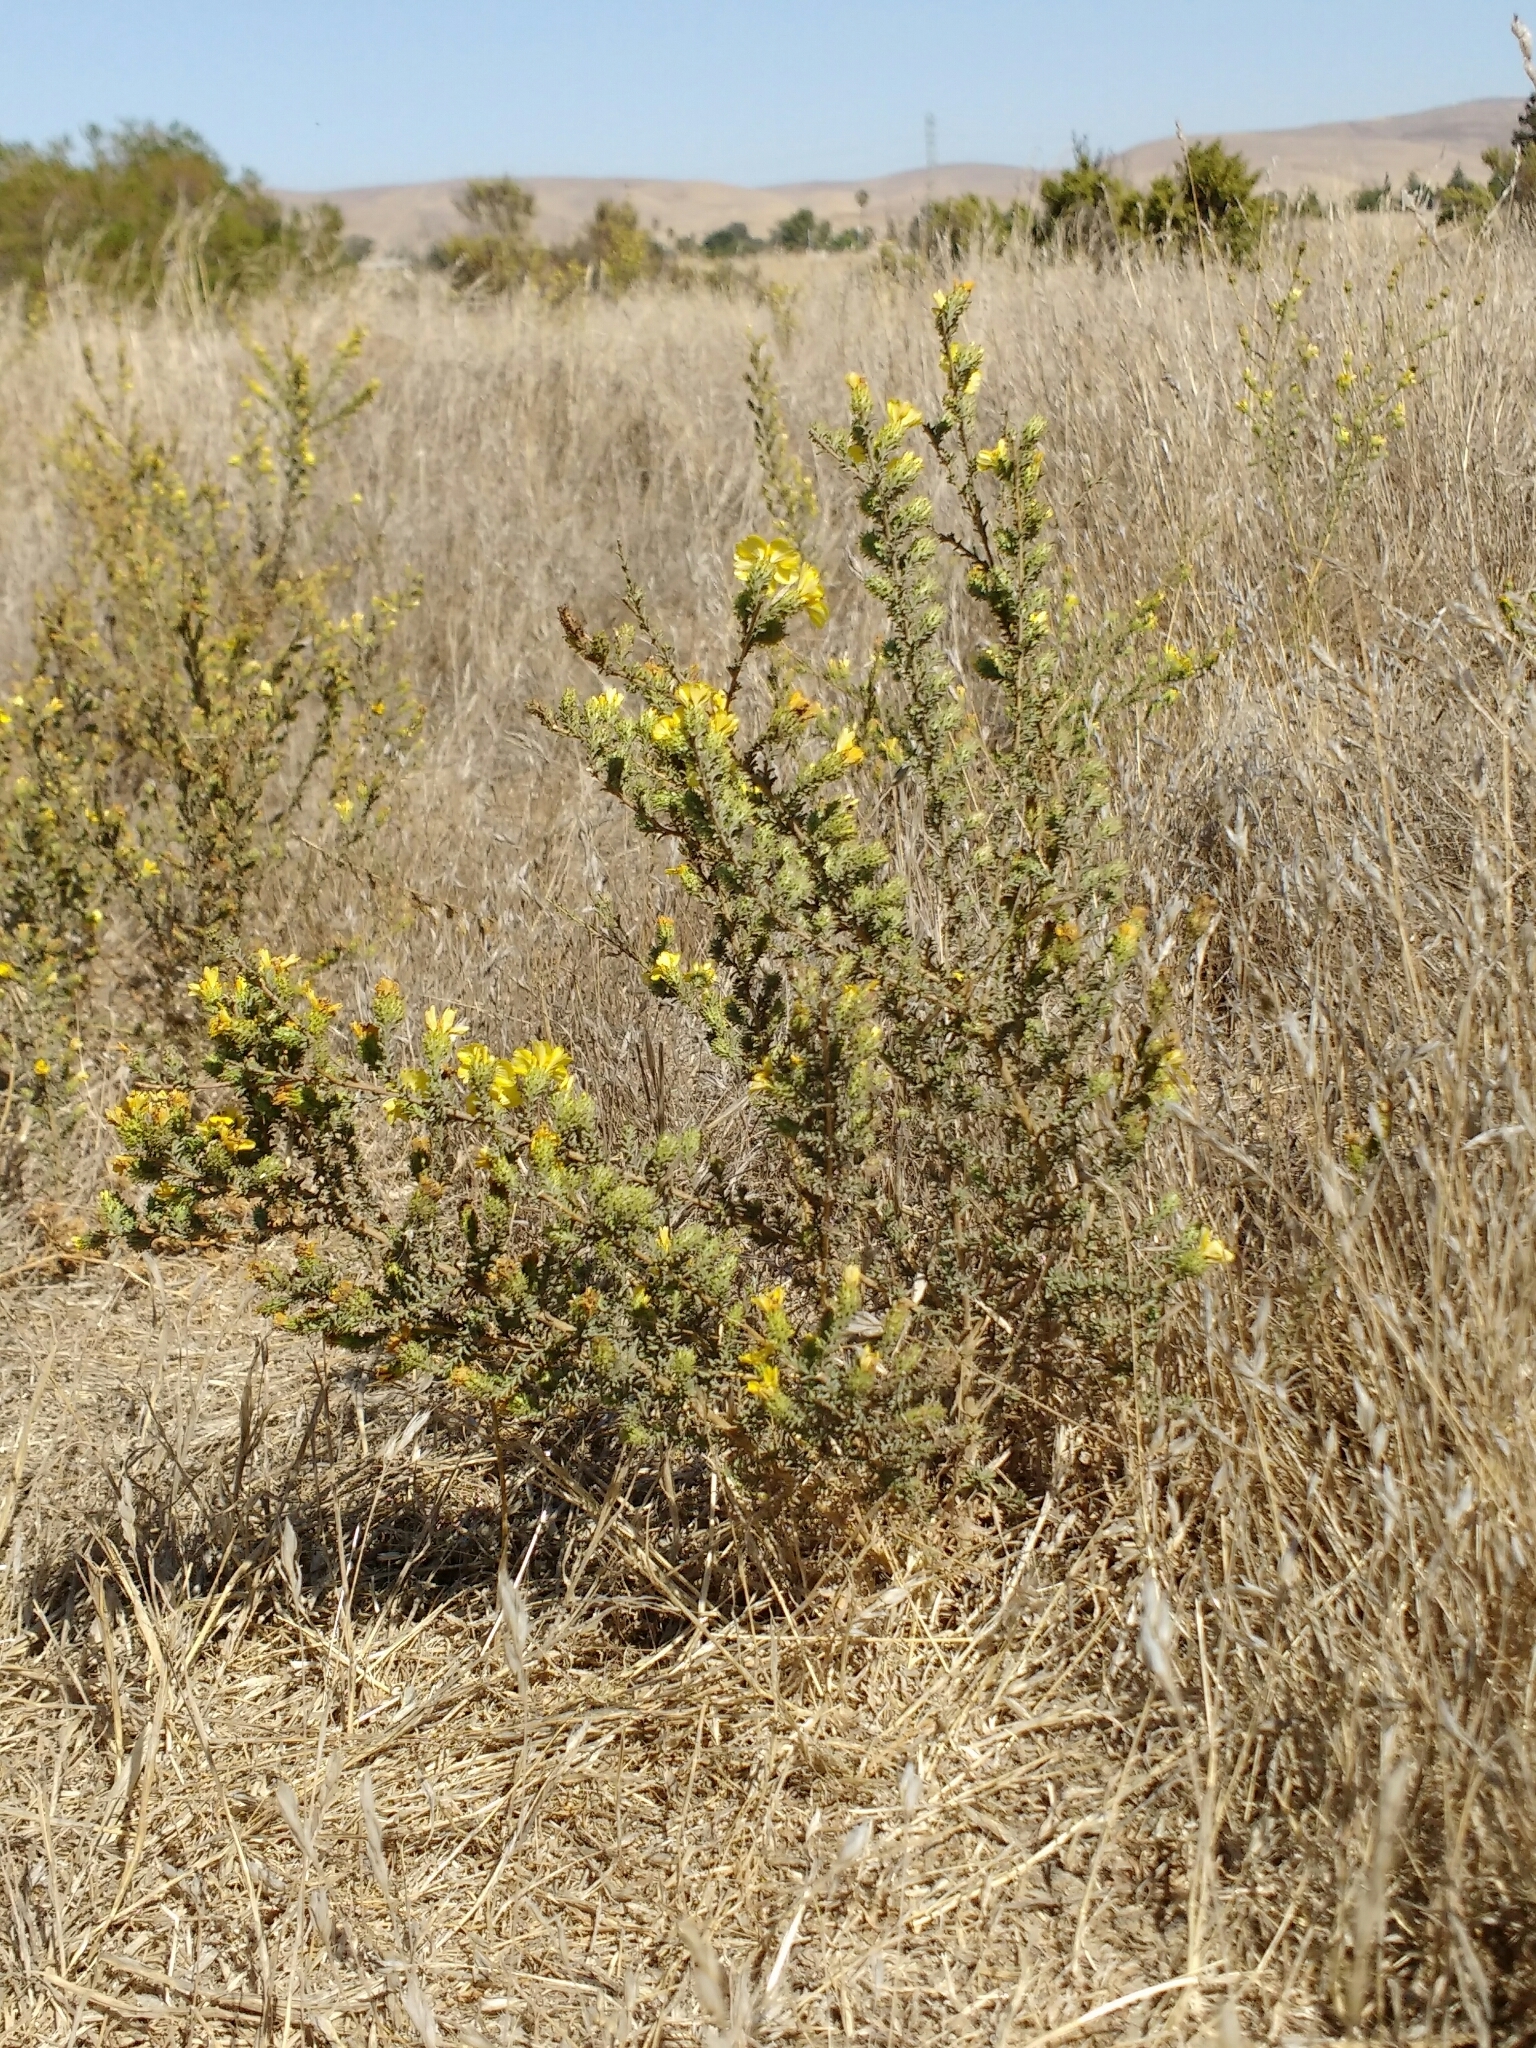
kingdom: Plantae
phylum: Tracheophyta
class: Magnoliopsida
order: Asterales
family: Asteraceae
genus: Holocarpha
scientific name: Holocarpha virgata
